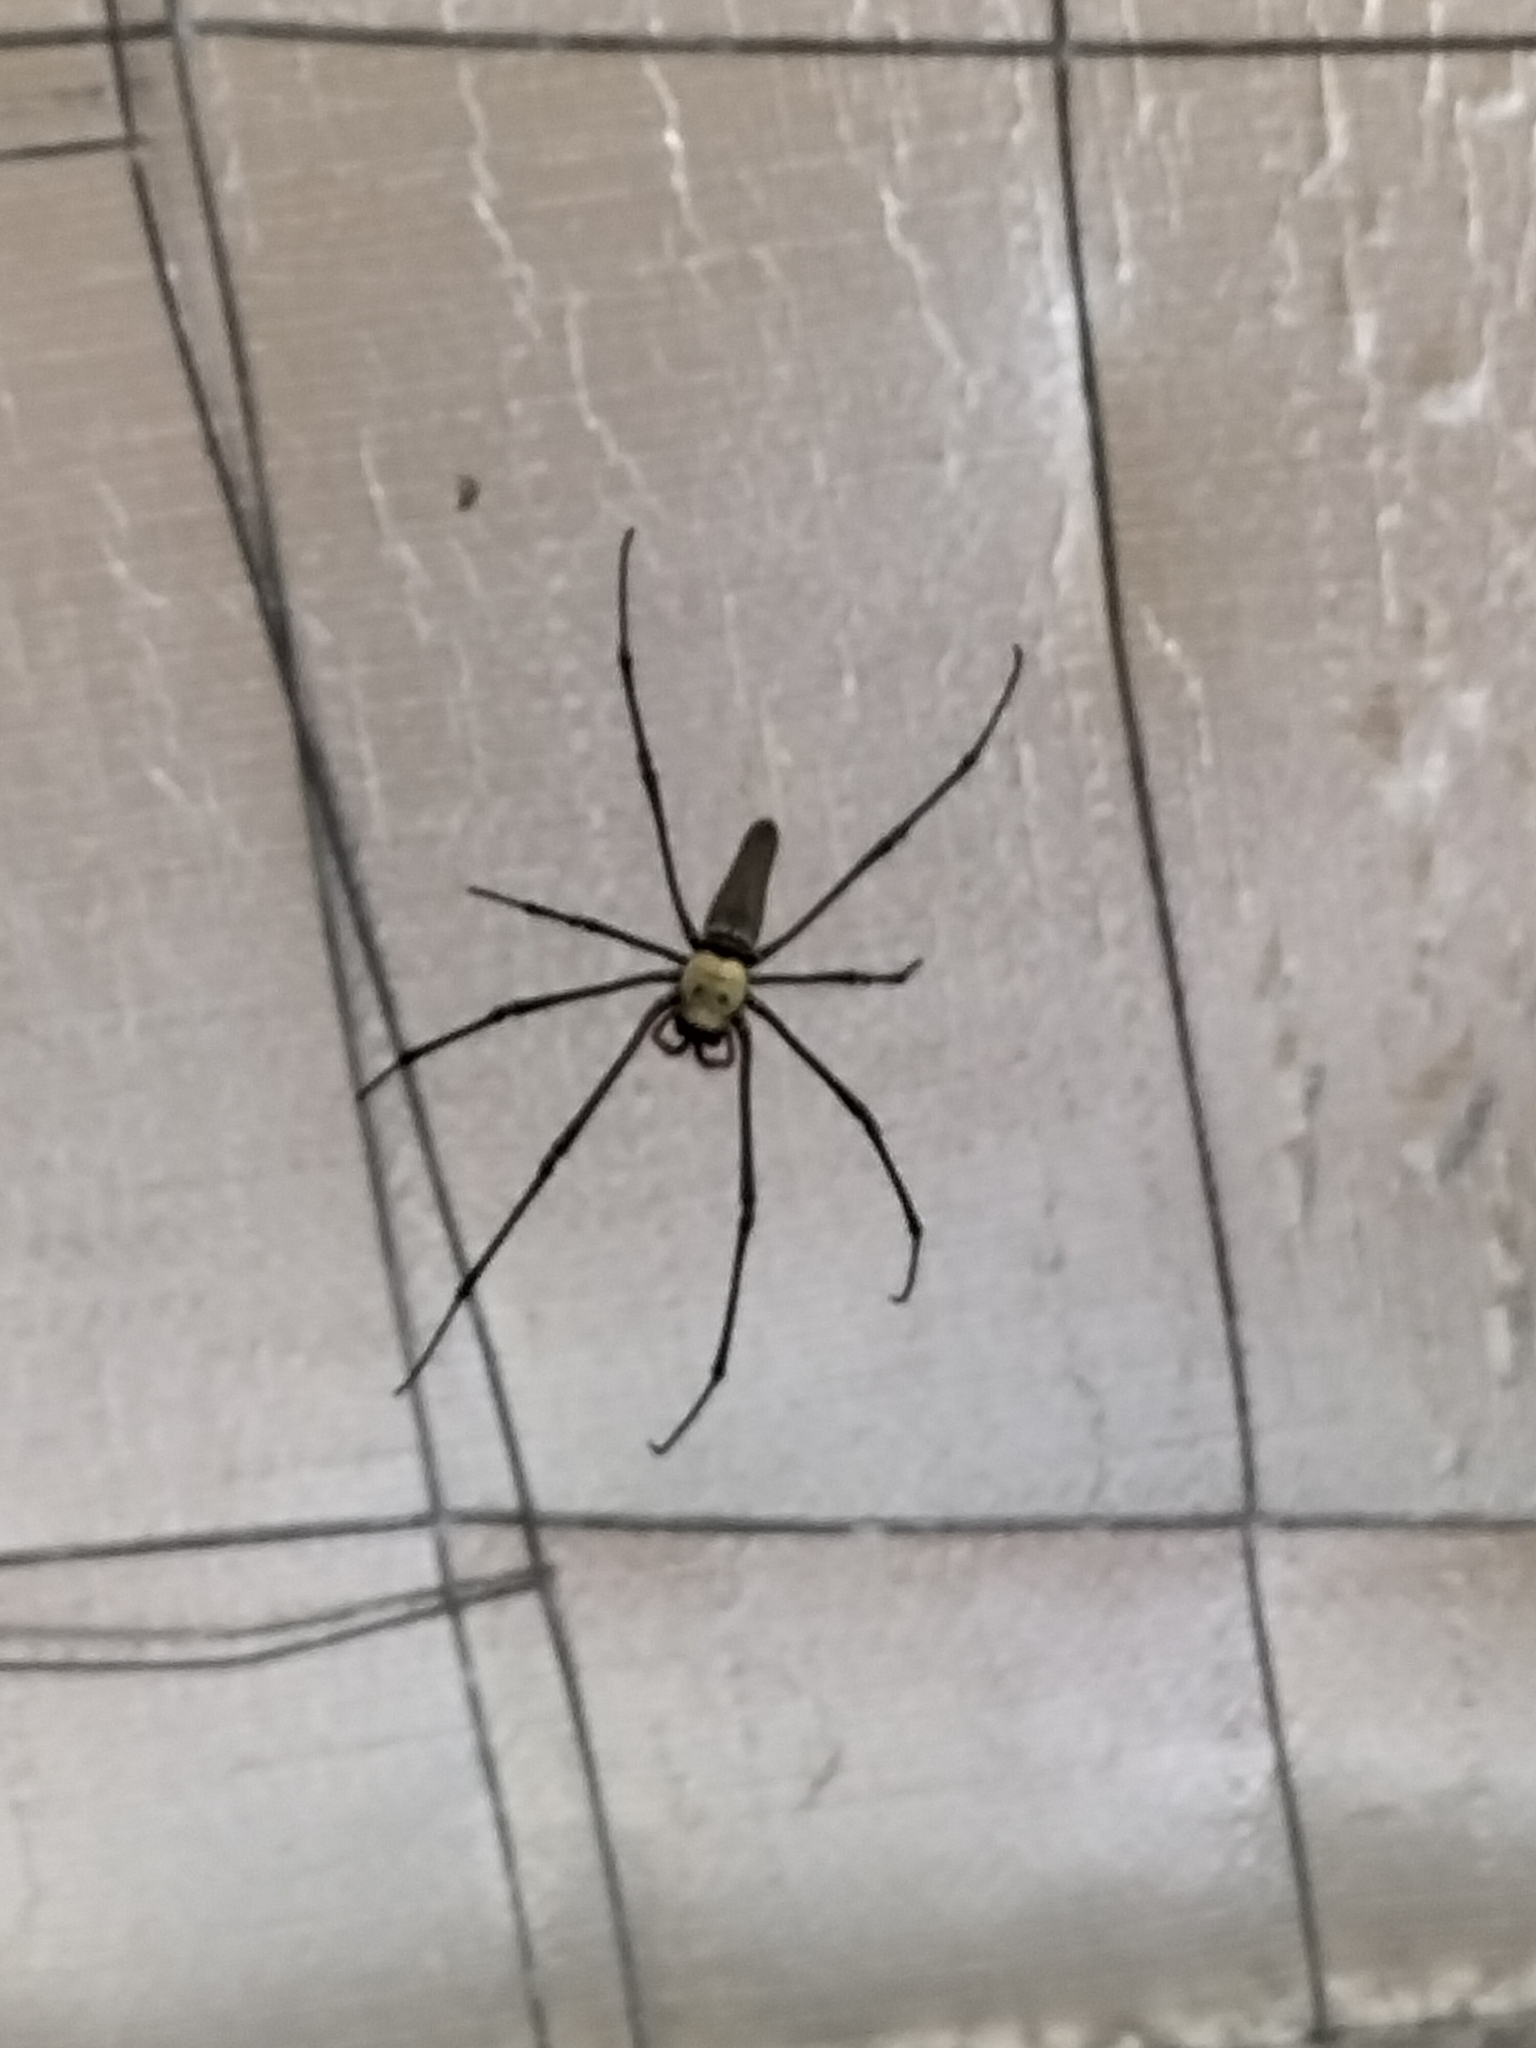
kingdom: Animalia
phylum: Arthropoda
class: Arachnida
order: Araneae
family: Araneidae
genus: Nephila
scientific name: Nephila pilipes
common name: Giant golden orb weaver
